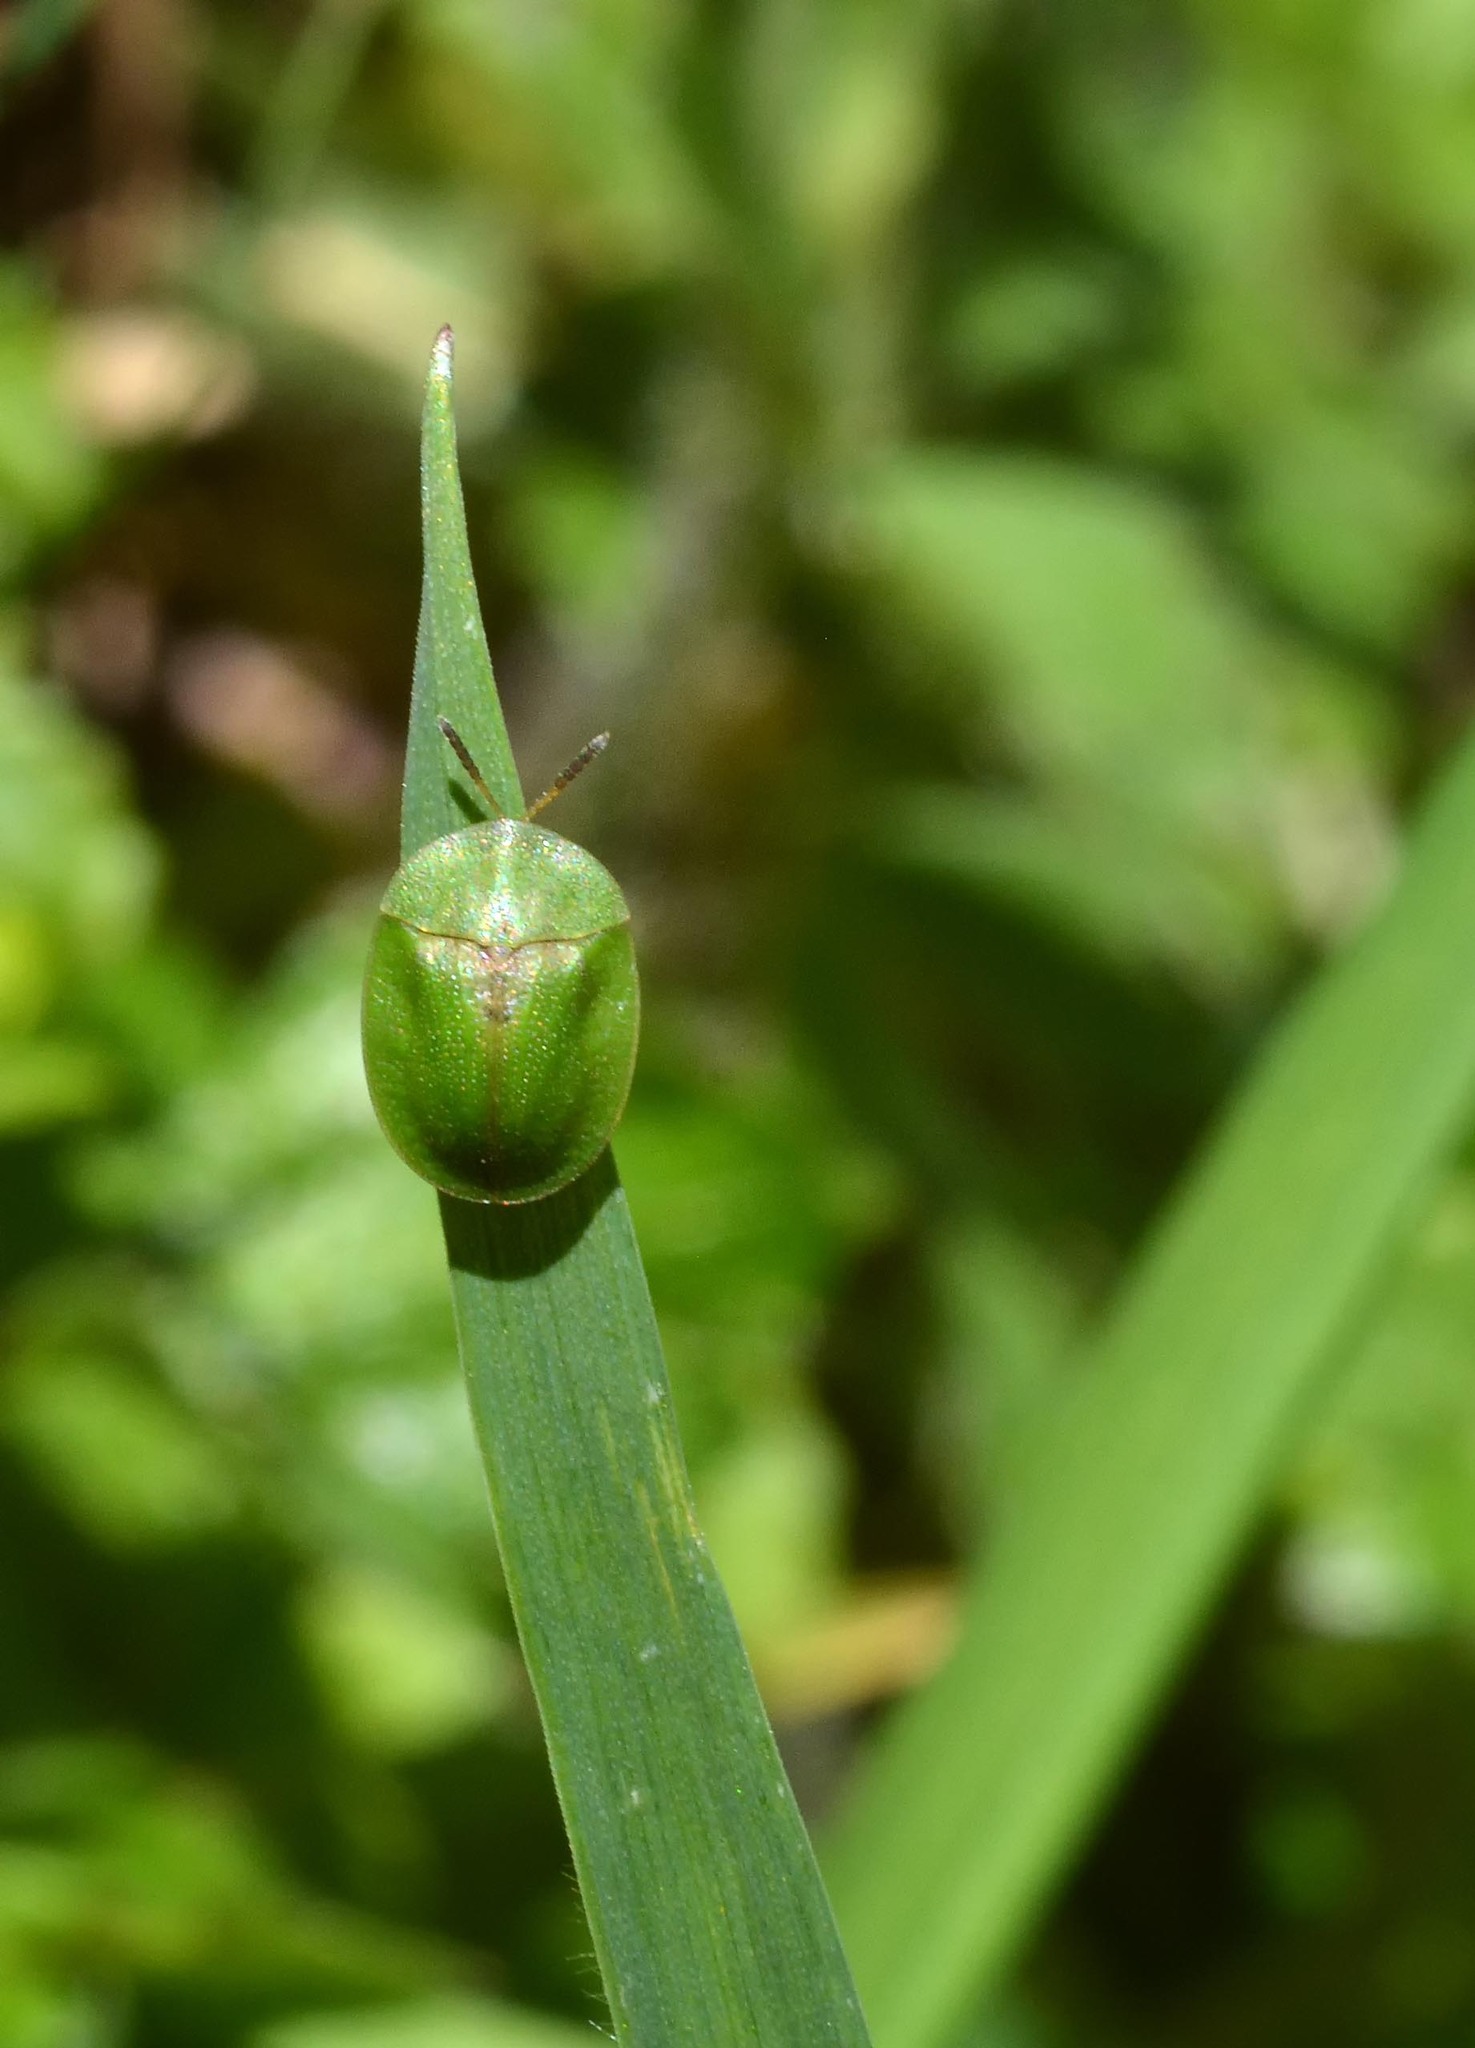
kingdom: Animalia
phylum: Arthropoda
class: Insecta
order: Coleoptera
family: Chrysomelidae
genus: Cassida
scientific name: Cassida rubiginosa
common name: Thistle tortoise beetle
